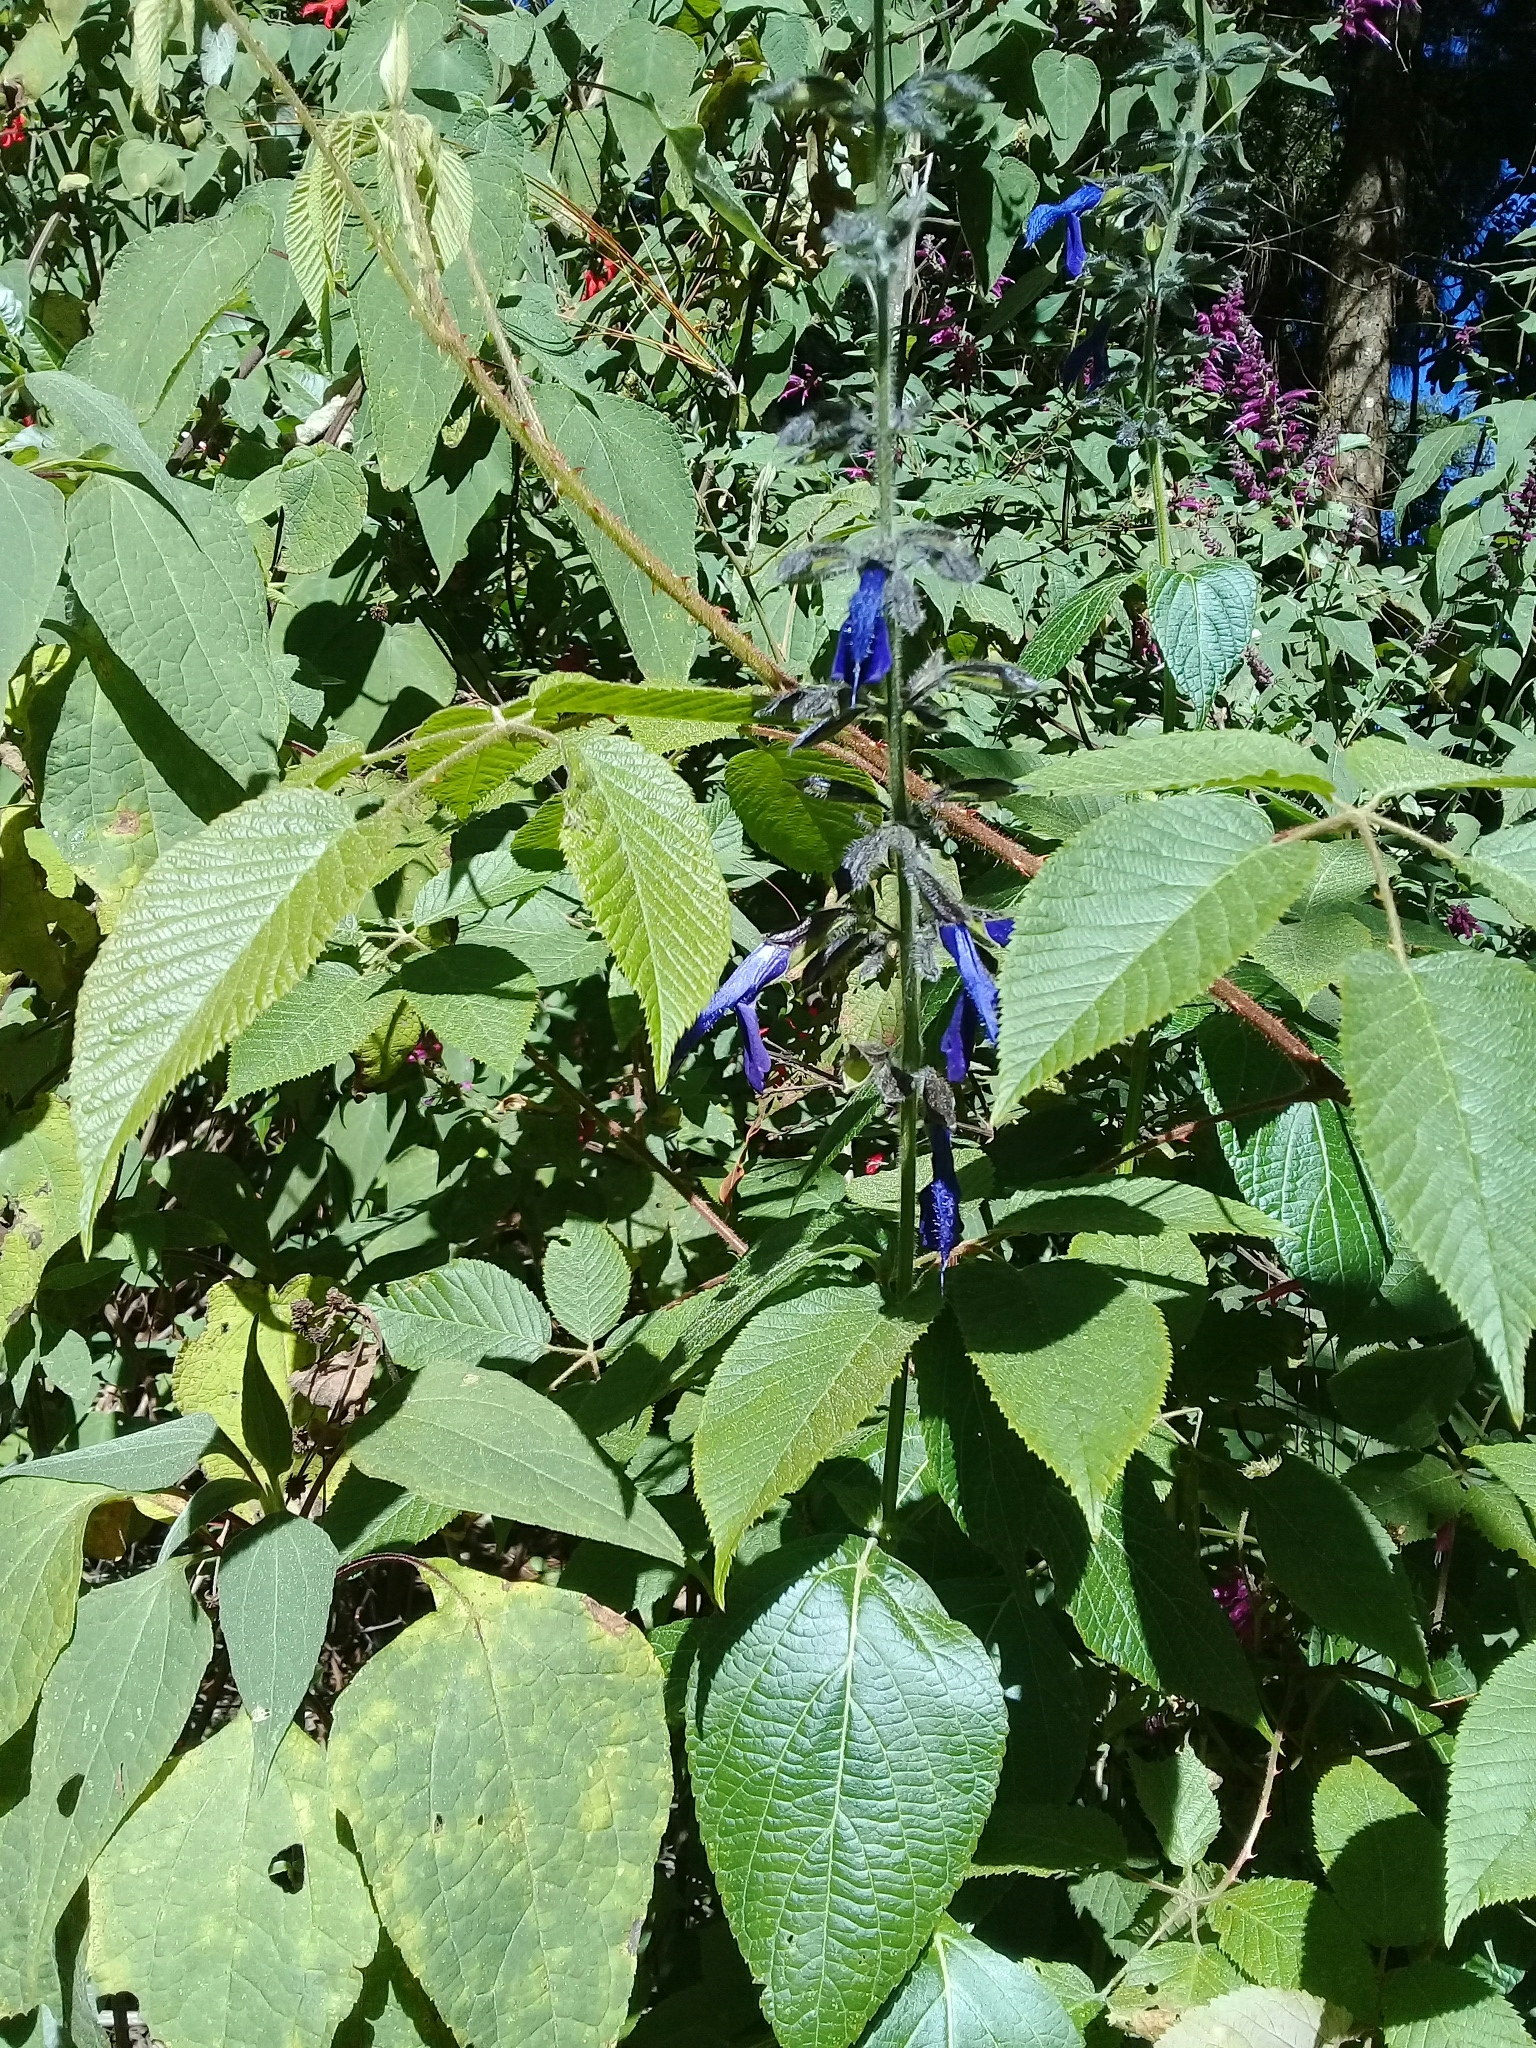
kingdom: Plantae
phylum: Tracheophyta
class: Magnoliopsida
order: Lamiales
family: Lamiaceae
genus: Salvia
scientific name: Salvia mexicana
